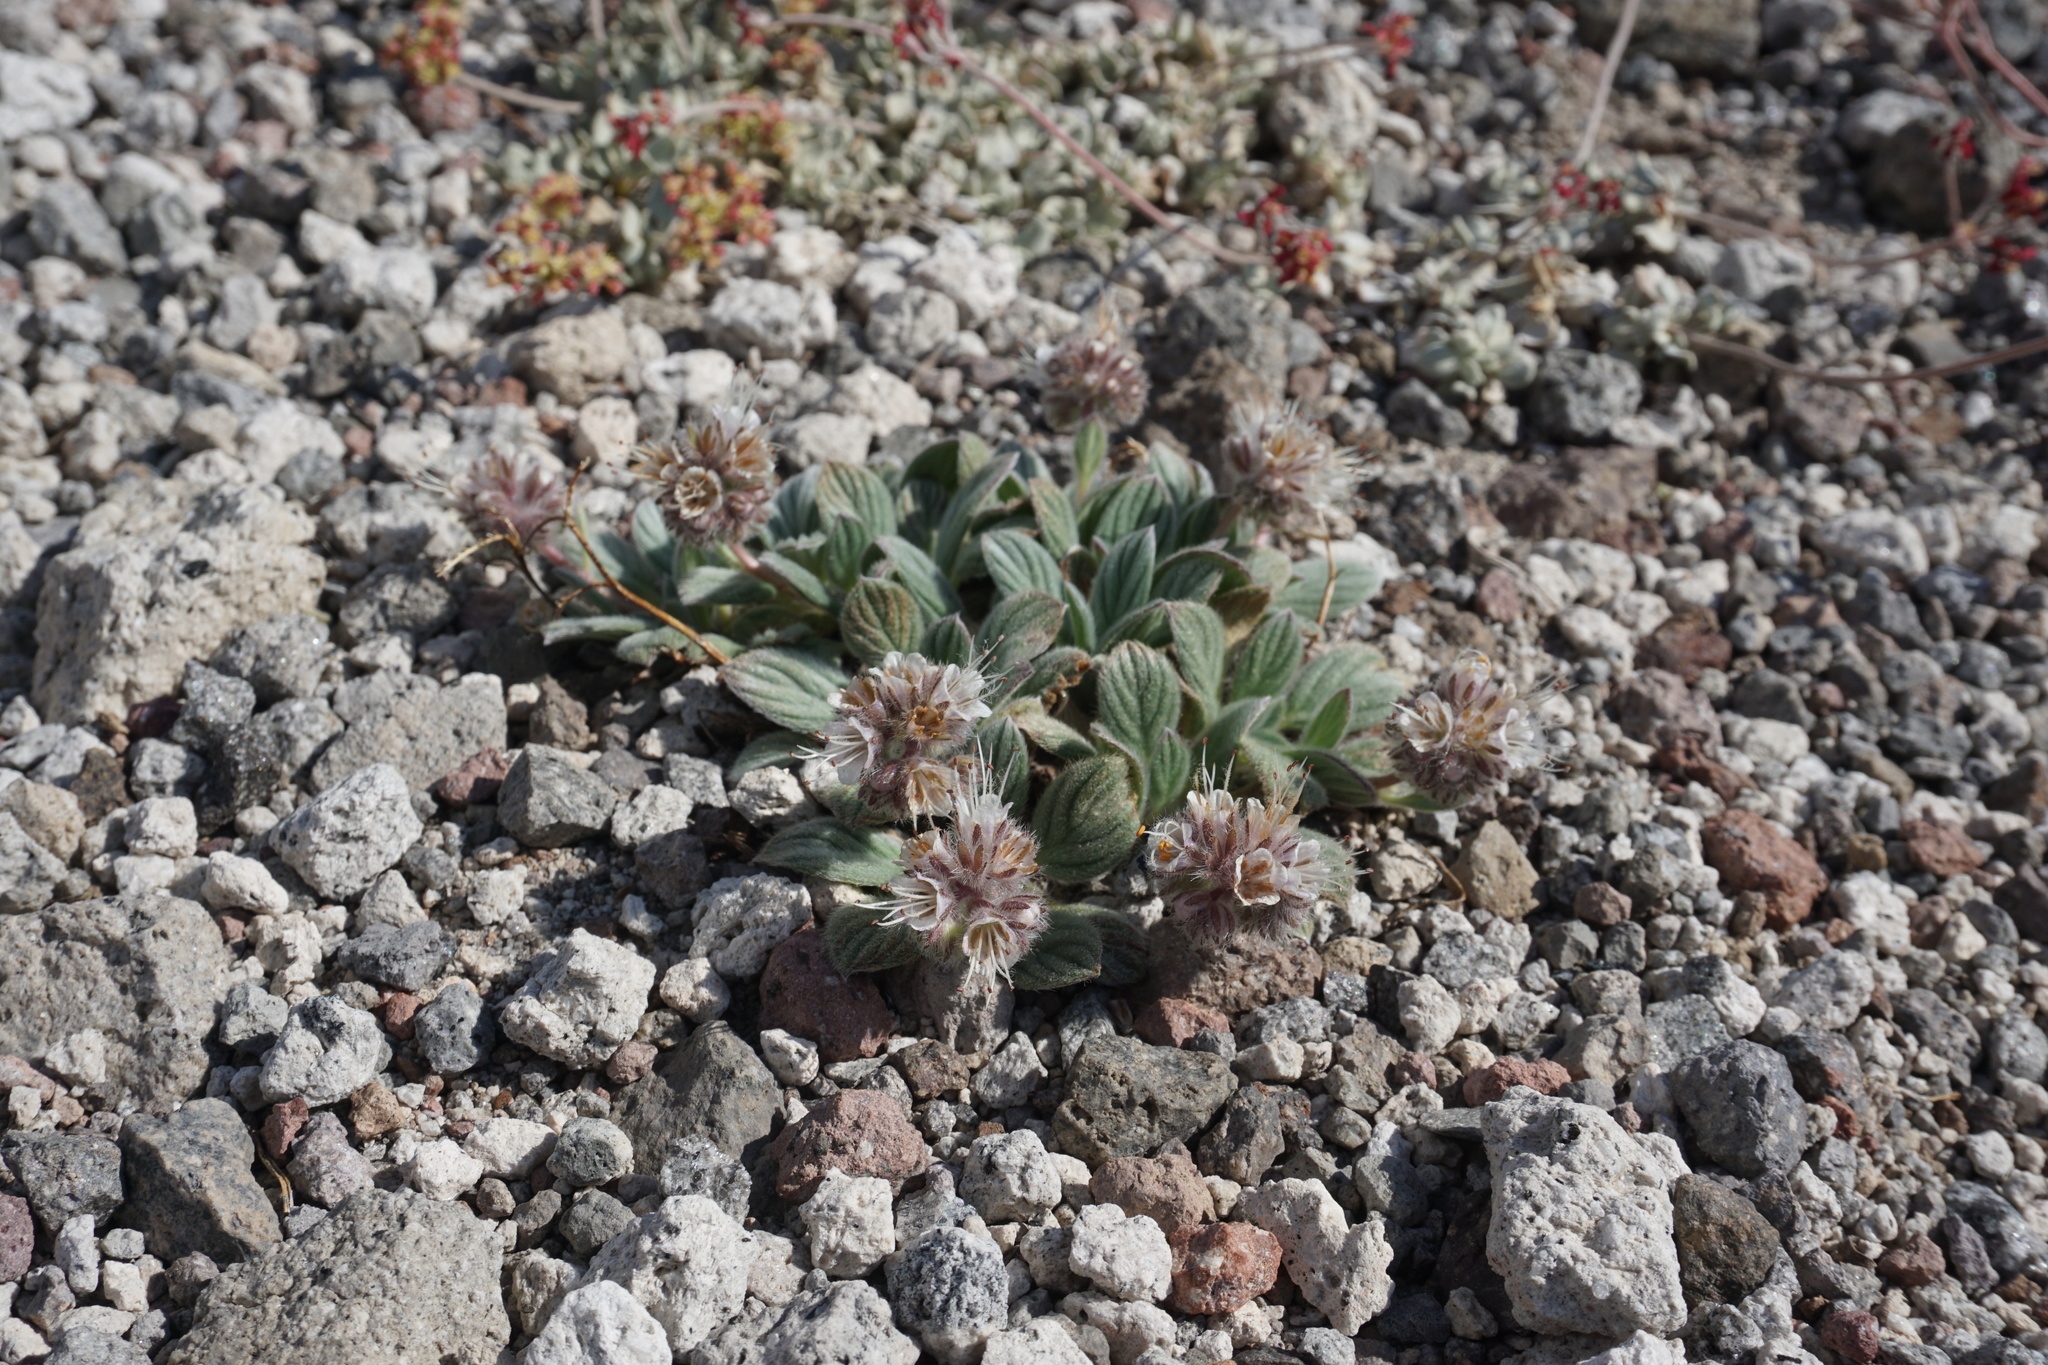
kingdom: Plantae
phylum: Tracheophyta
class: Magnoliopsida
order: Boraginales
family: Hydrophyllaceae
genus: Phacelia
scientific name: Phacelia hastata
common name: Silver-leaved phacelia
